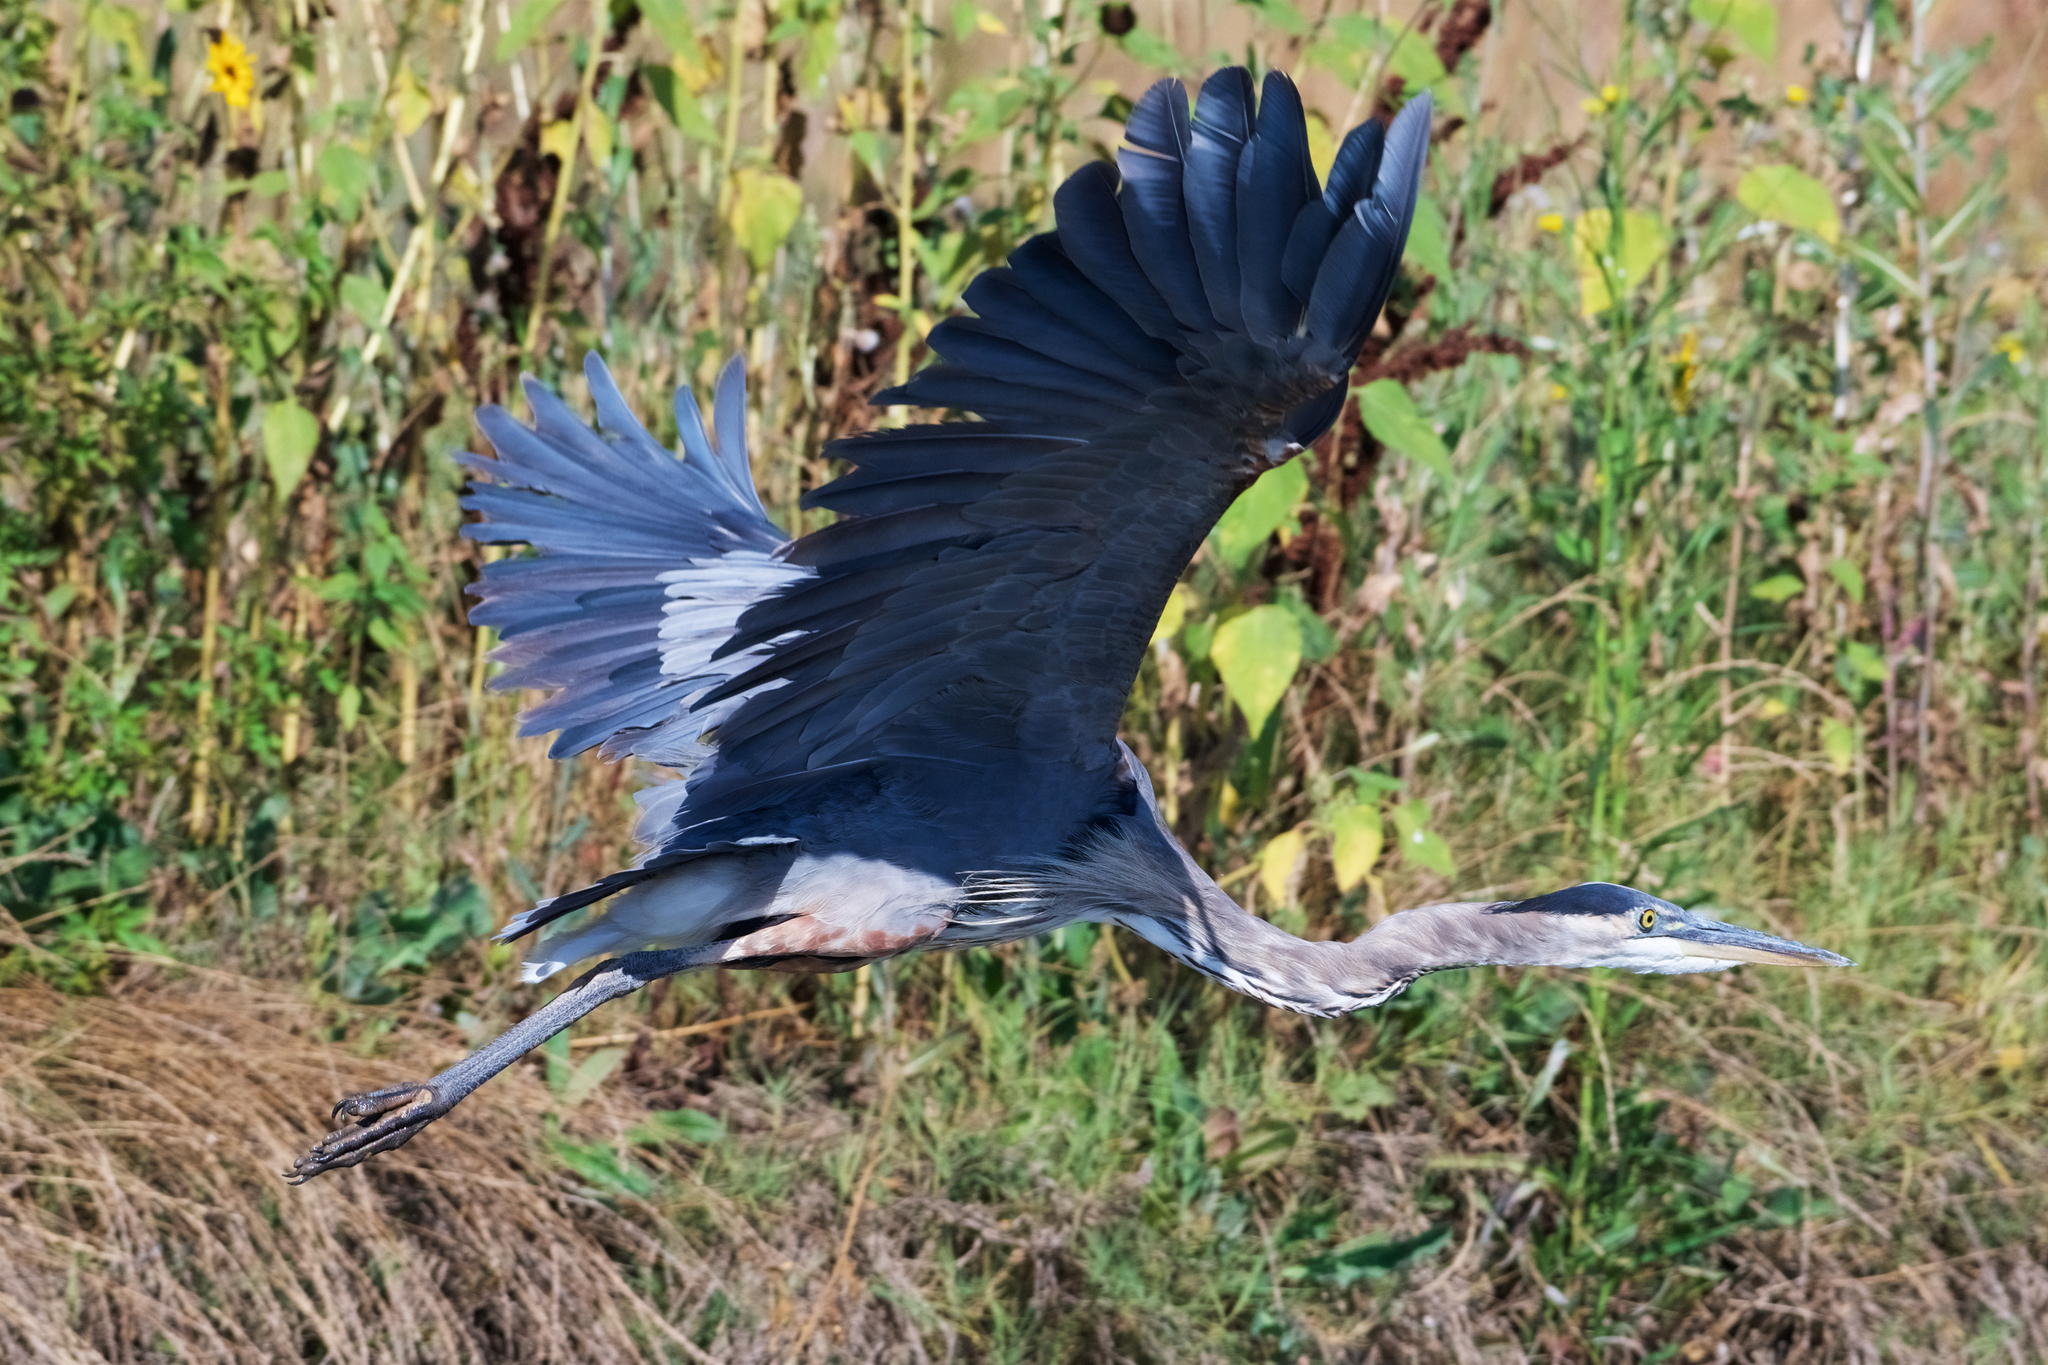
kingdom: Animalia
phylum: Chordata
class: Aves
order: Pelecaniformes
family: Ardeidae
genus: Ardea
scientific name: Ardea herodias
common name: Great blue heron
